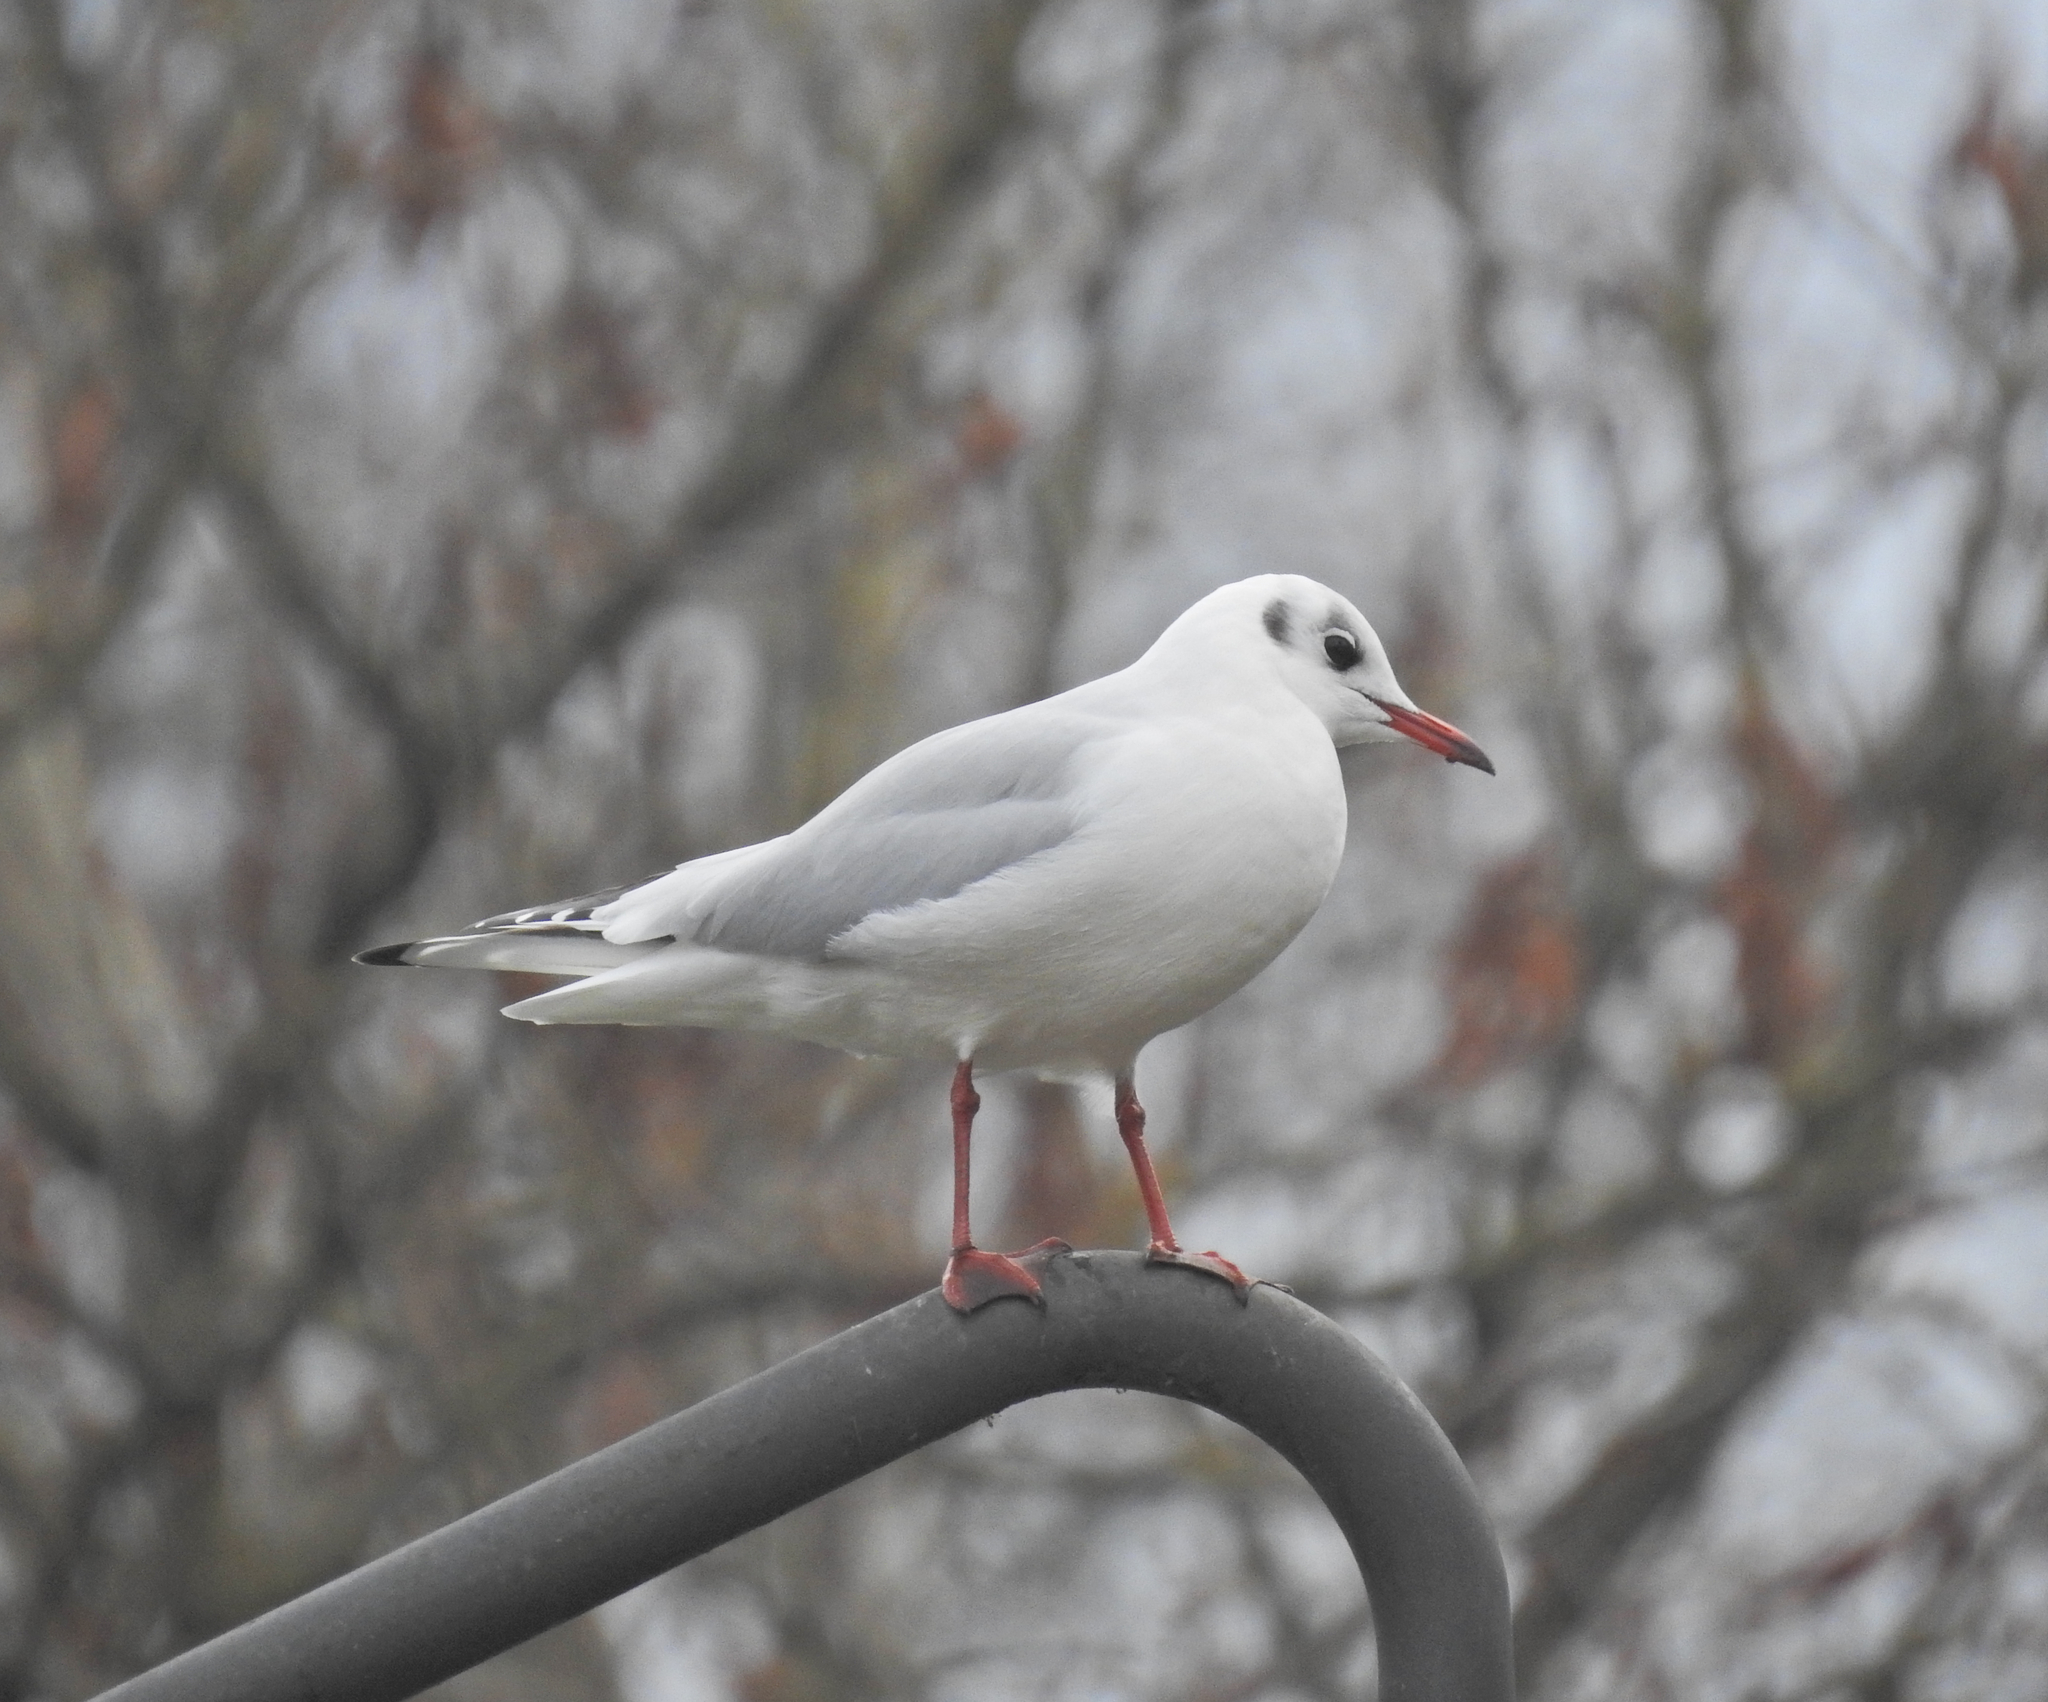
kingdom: Animalia
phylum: Chordata
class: Aves
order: Charadriiformes
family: Laridae
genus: Chroicocephalus
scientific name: Chroicocephalus ridibundus
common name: Black-headed gull
